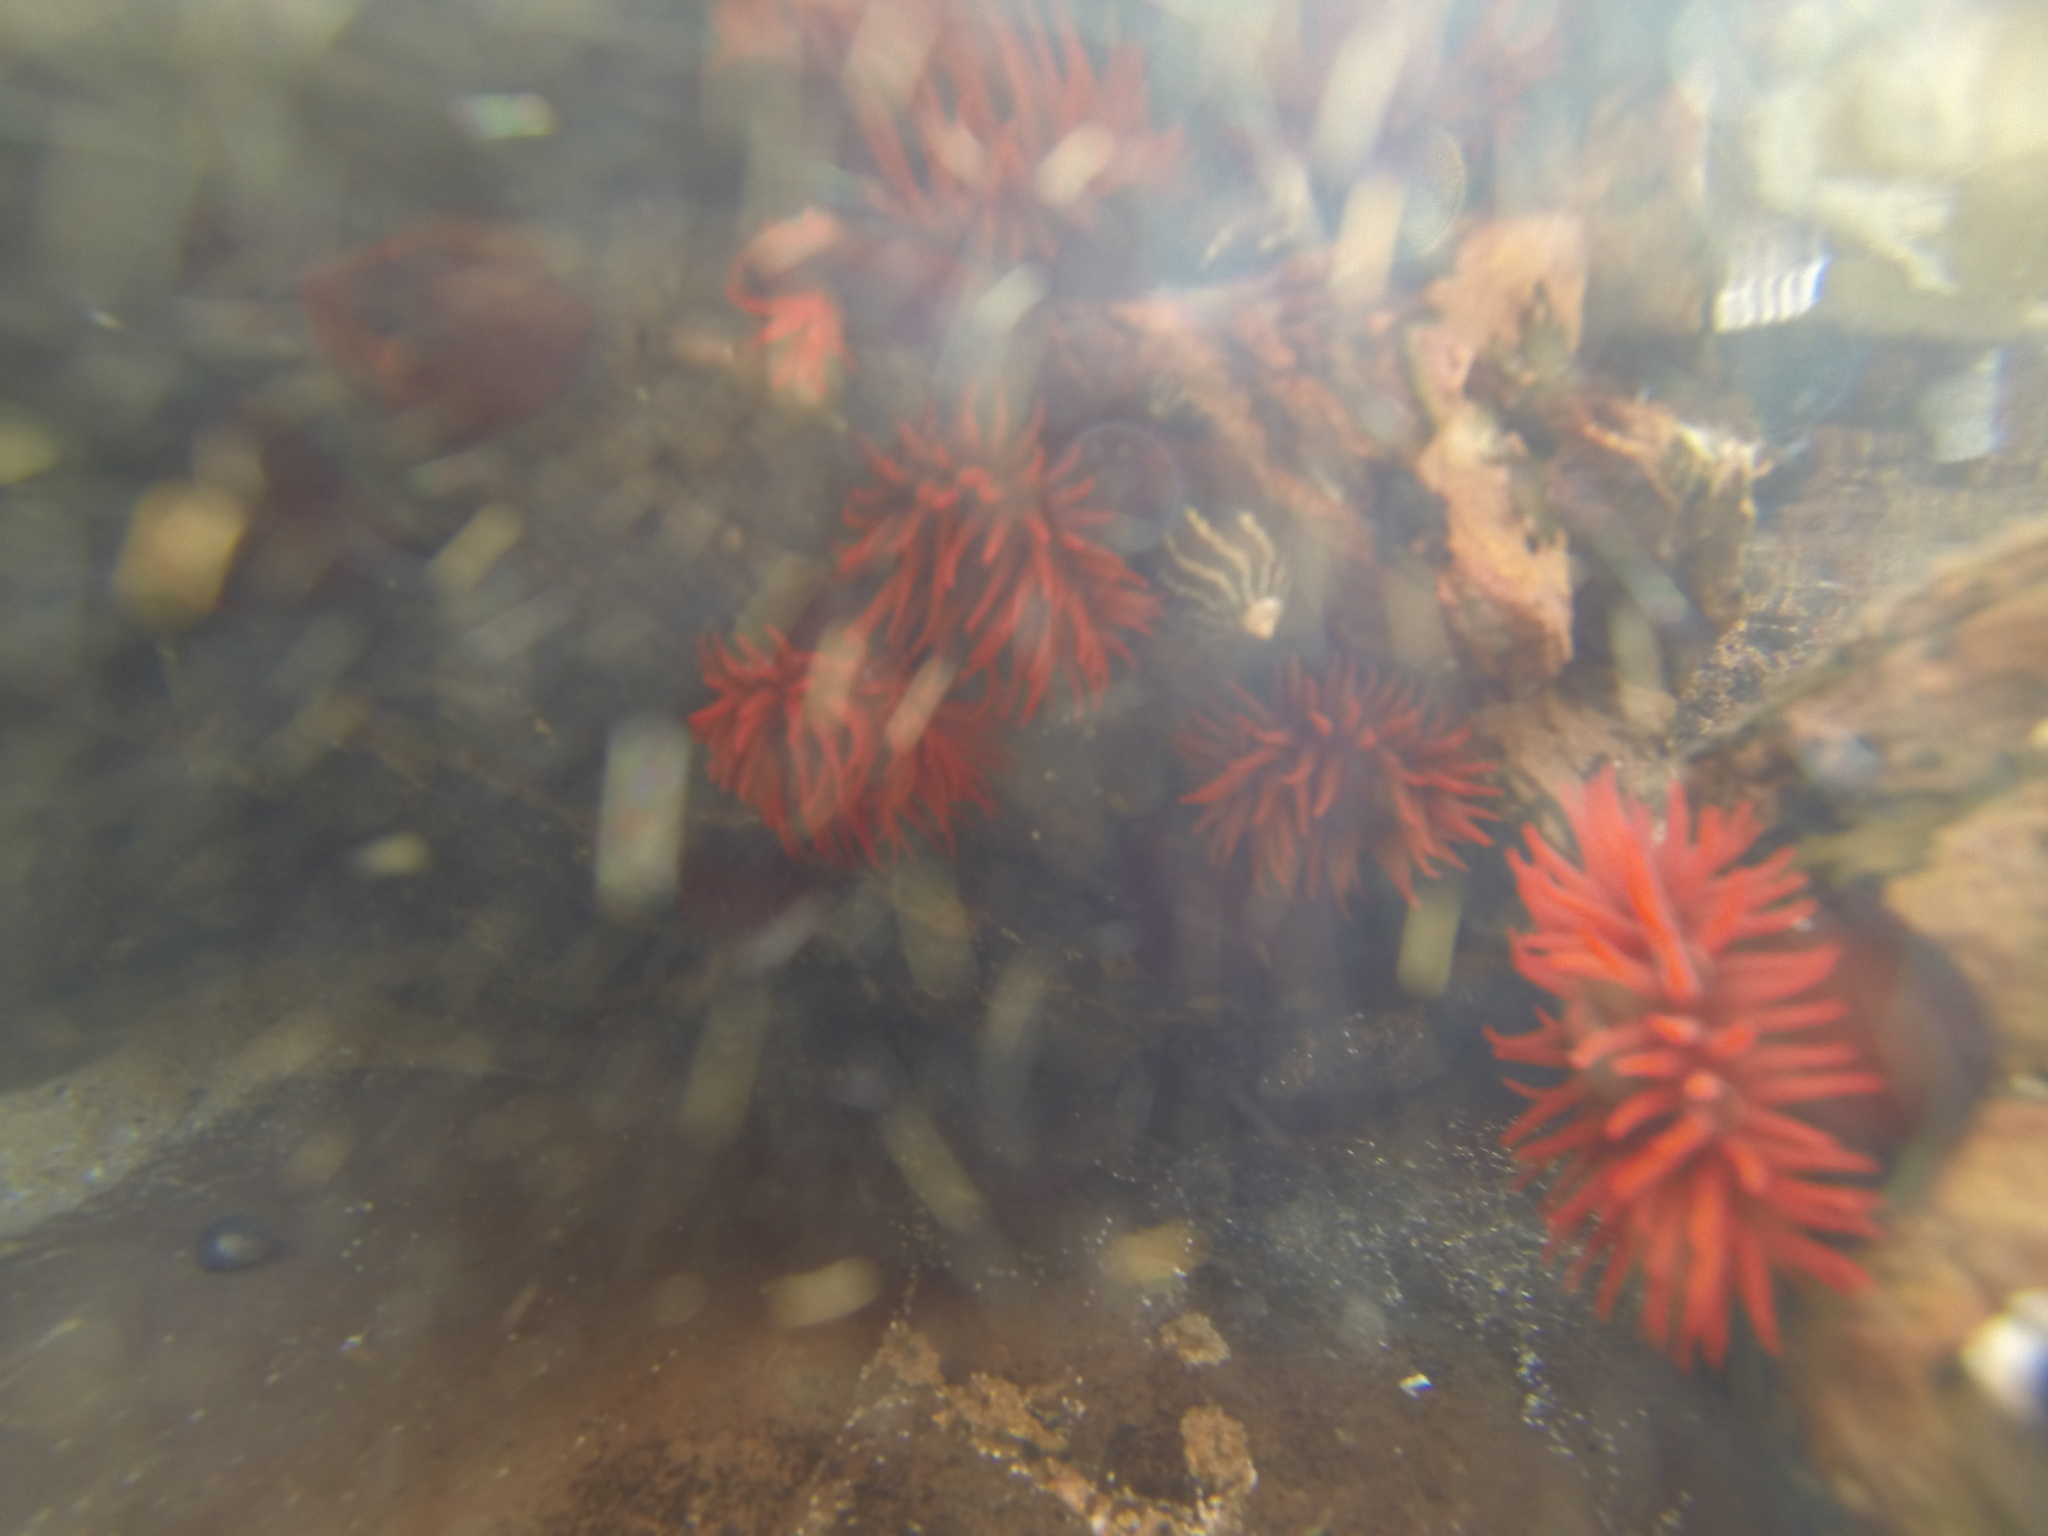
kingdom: Animalia
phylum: Cnidaria
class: Anthozoa
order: Actiniaria
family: Actiniidae
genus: Actinia
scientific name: Actinia tenebrosa
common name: Waratah anemone
